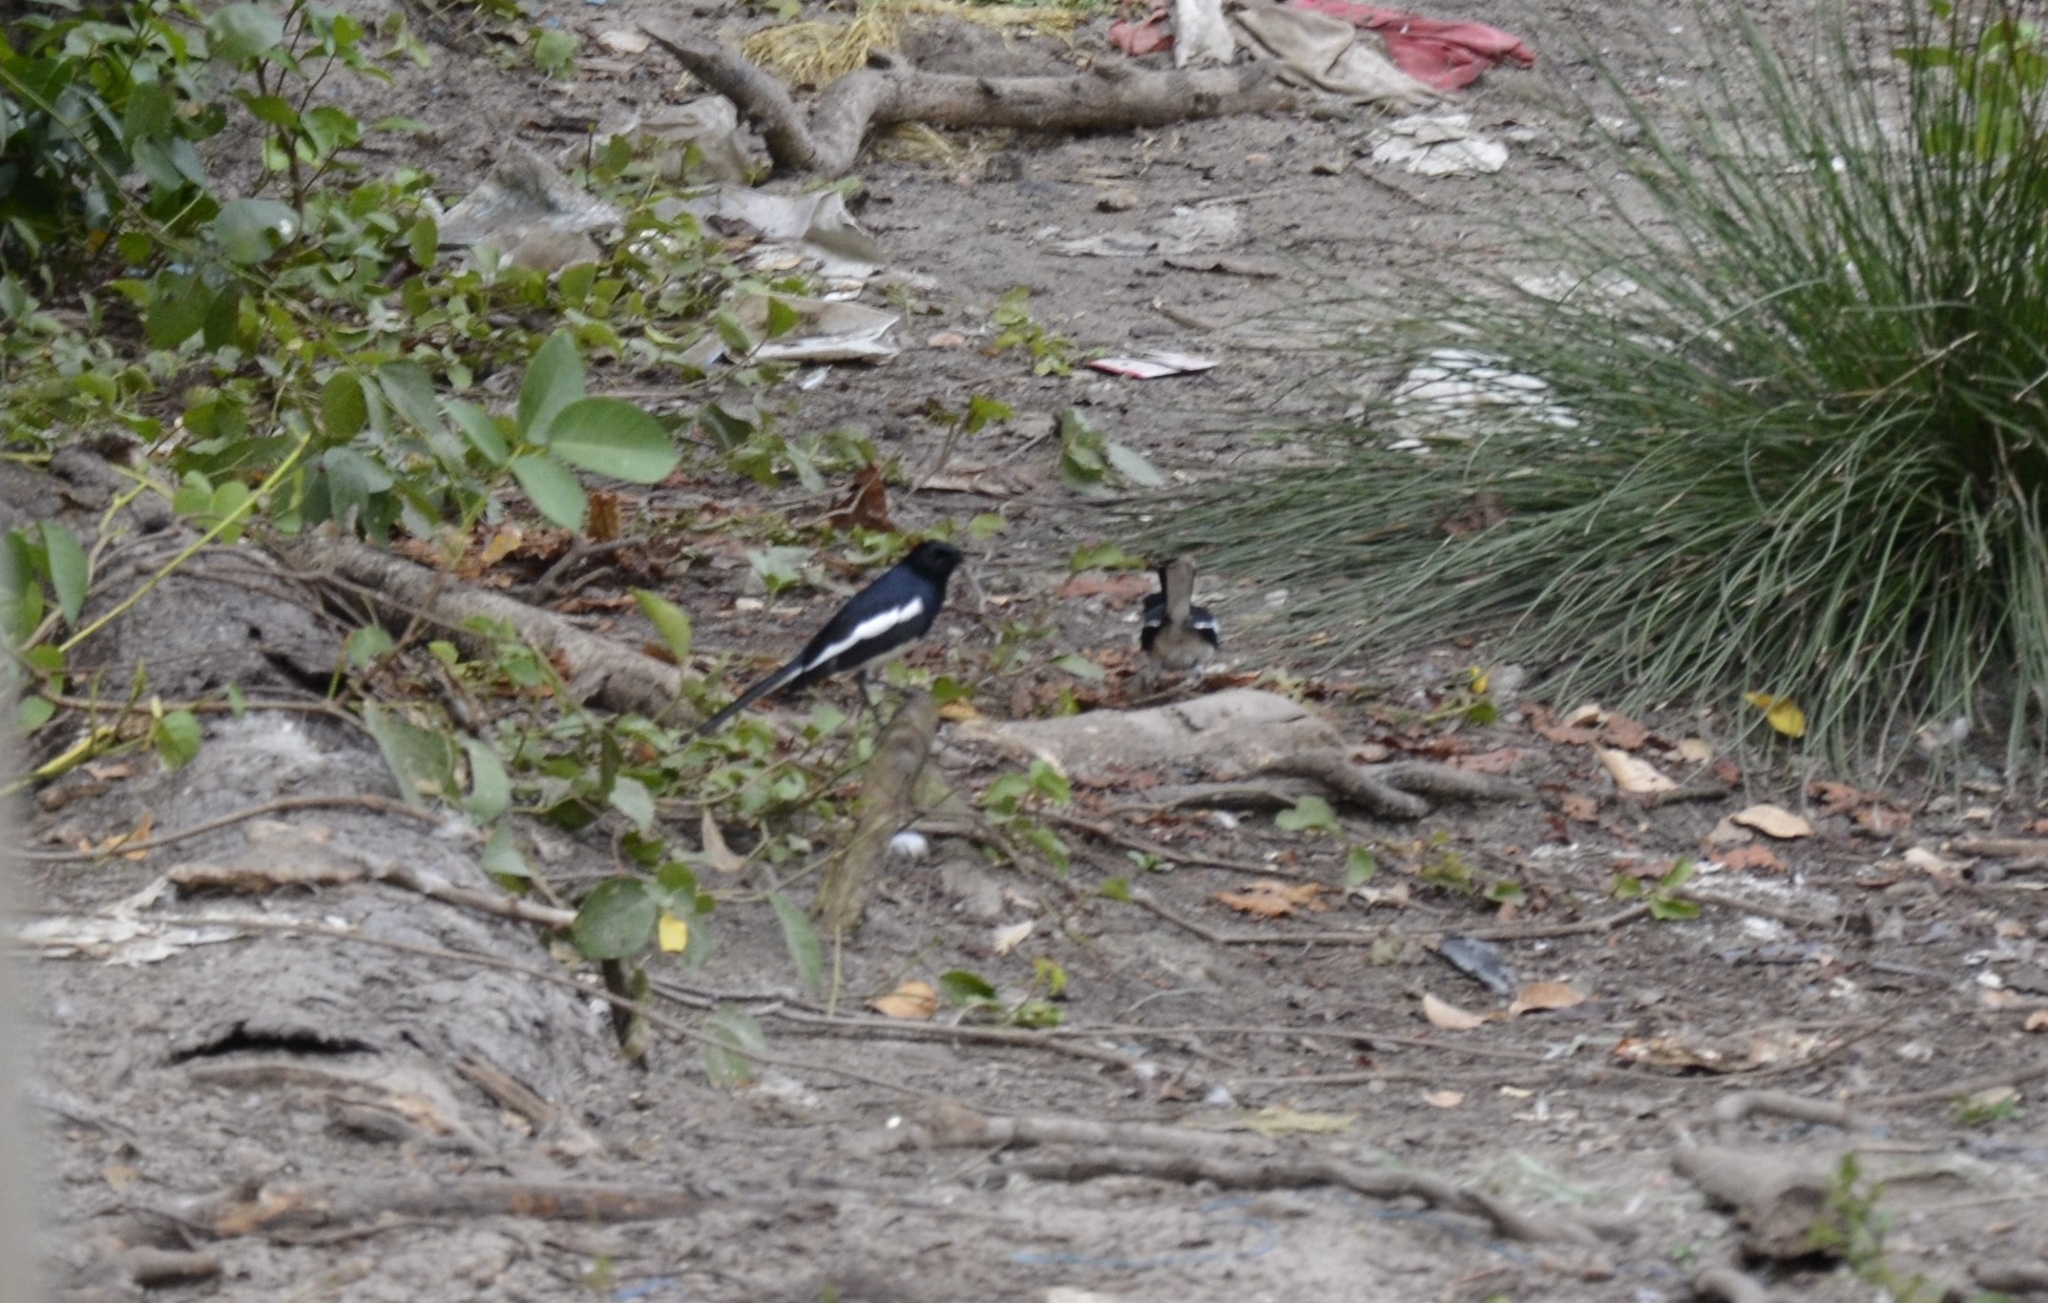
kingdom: Animalia
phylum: Chordata
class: Aves
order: Passeriformes
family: Muscicapidae
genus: Copsychus
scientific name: Copsychus saularis
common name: Oriental magpie-robin
